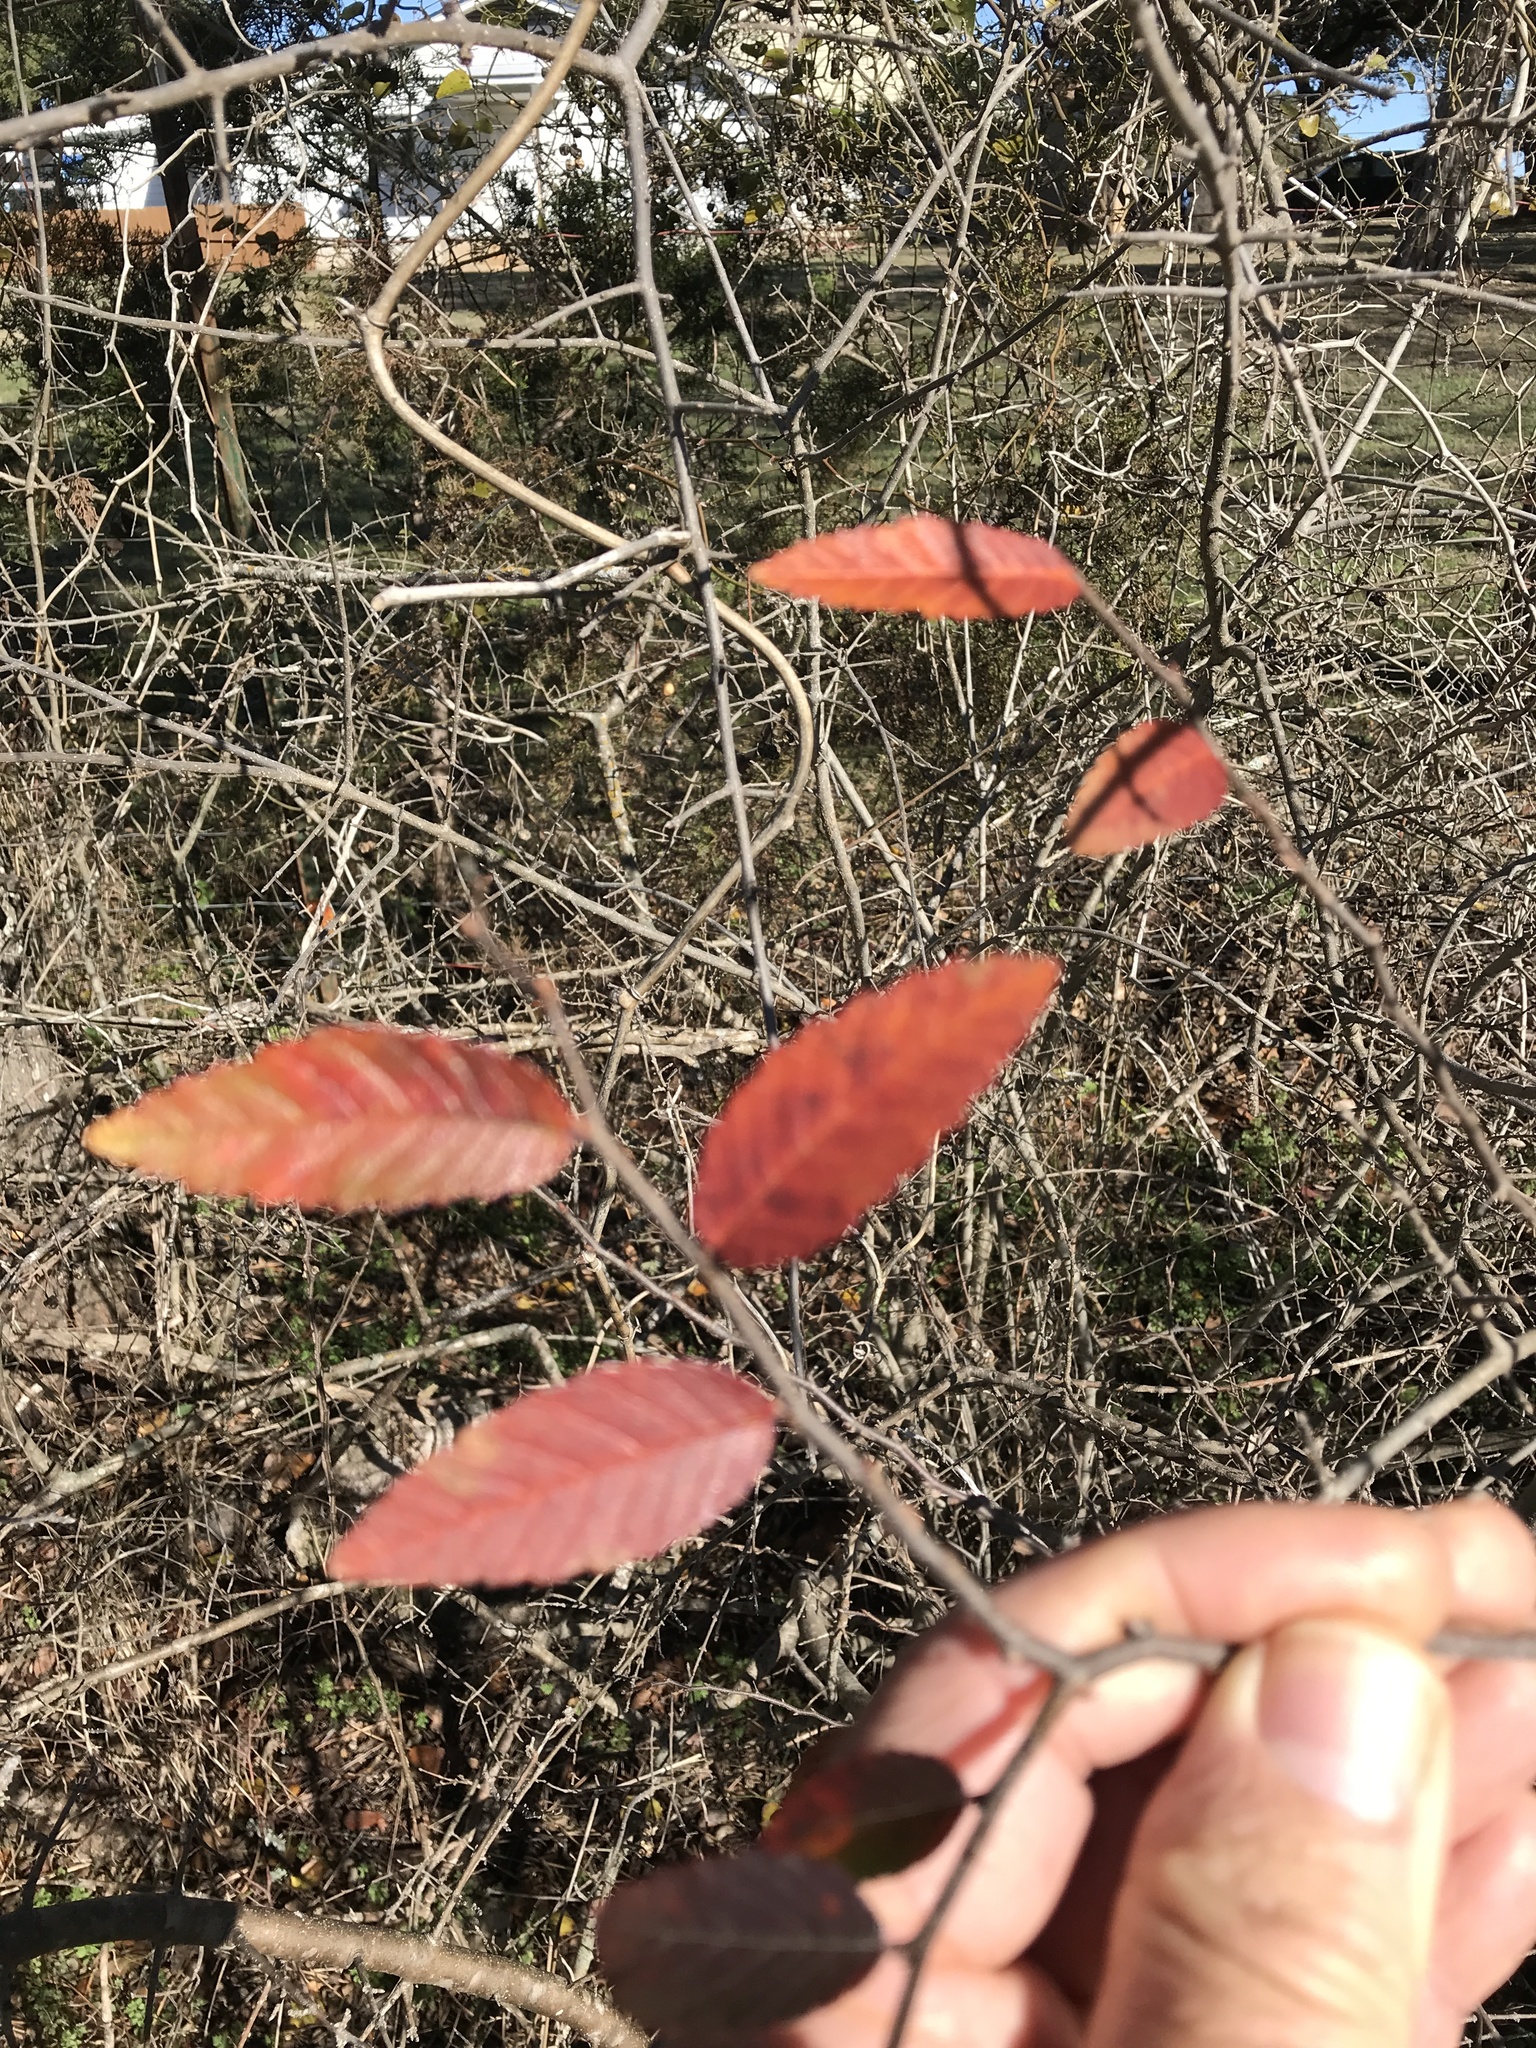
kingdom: Plantae
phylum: Tracheophyta
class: Magnoliopsida
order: Rosales
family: Ulmaceae
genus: Ulmus
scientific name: Ulmus crassifolia
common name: Basket elm
